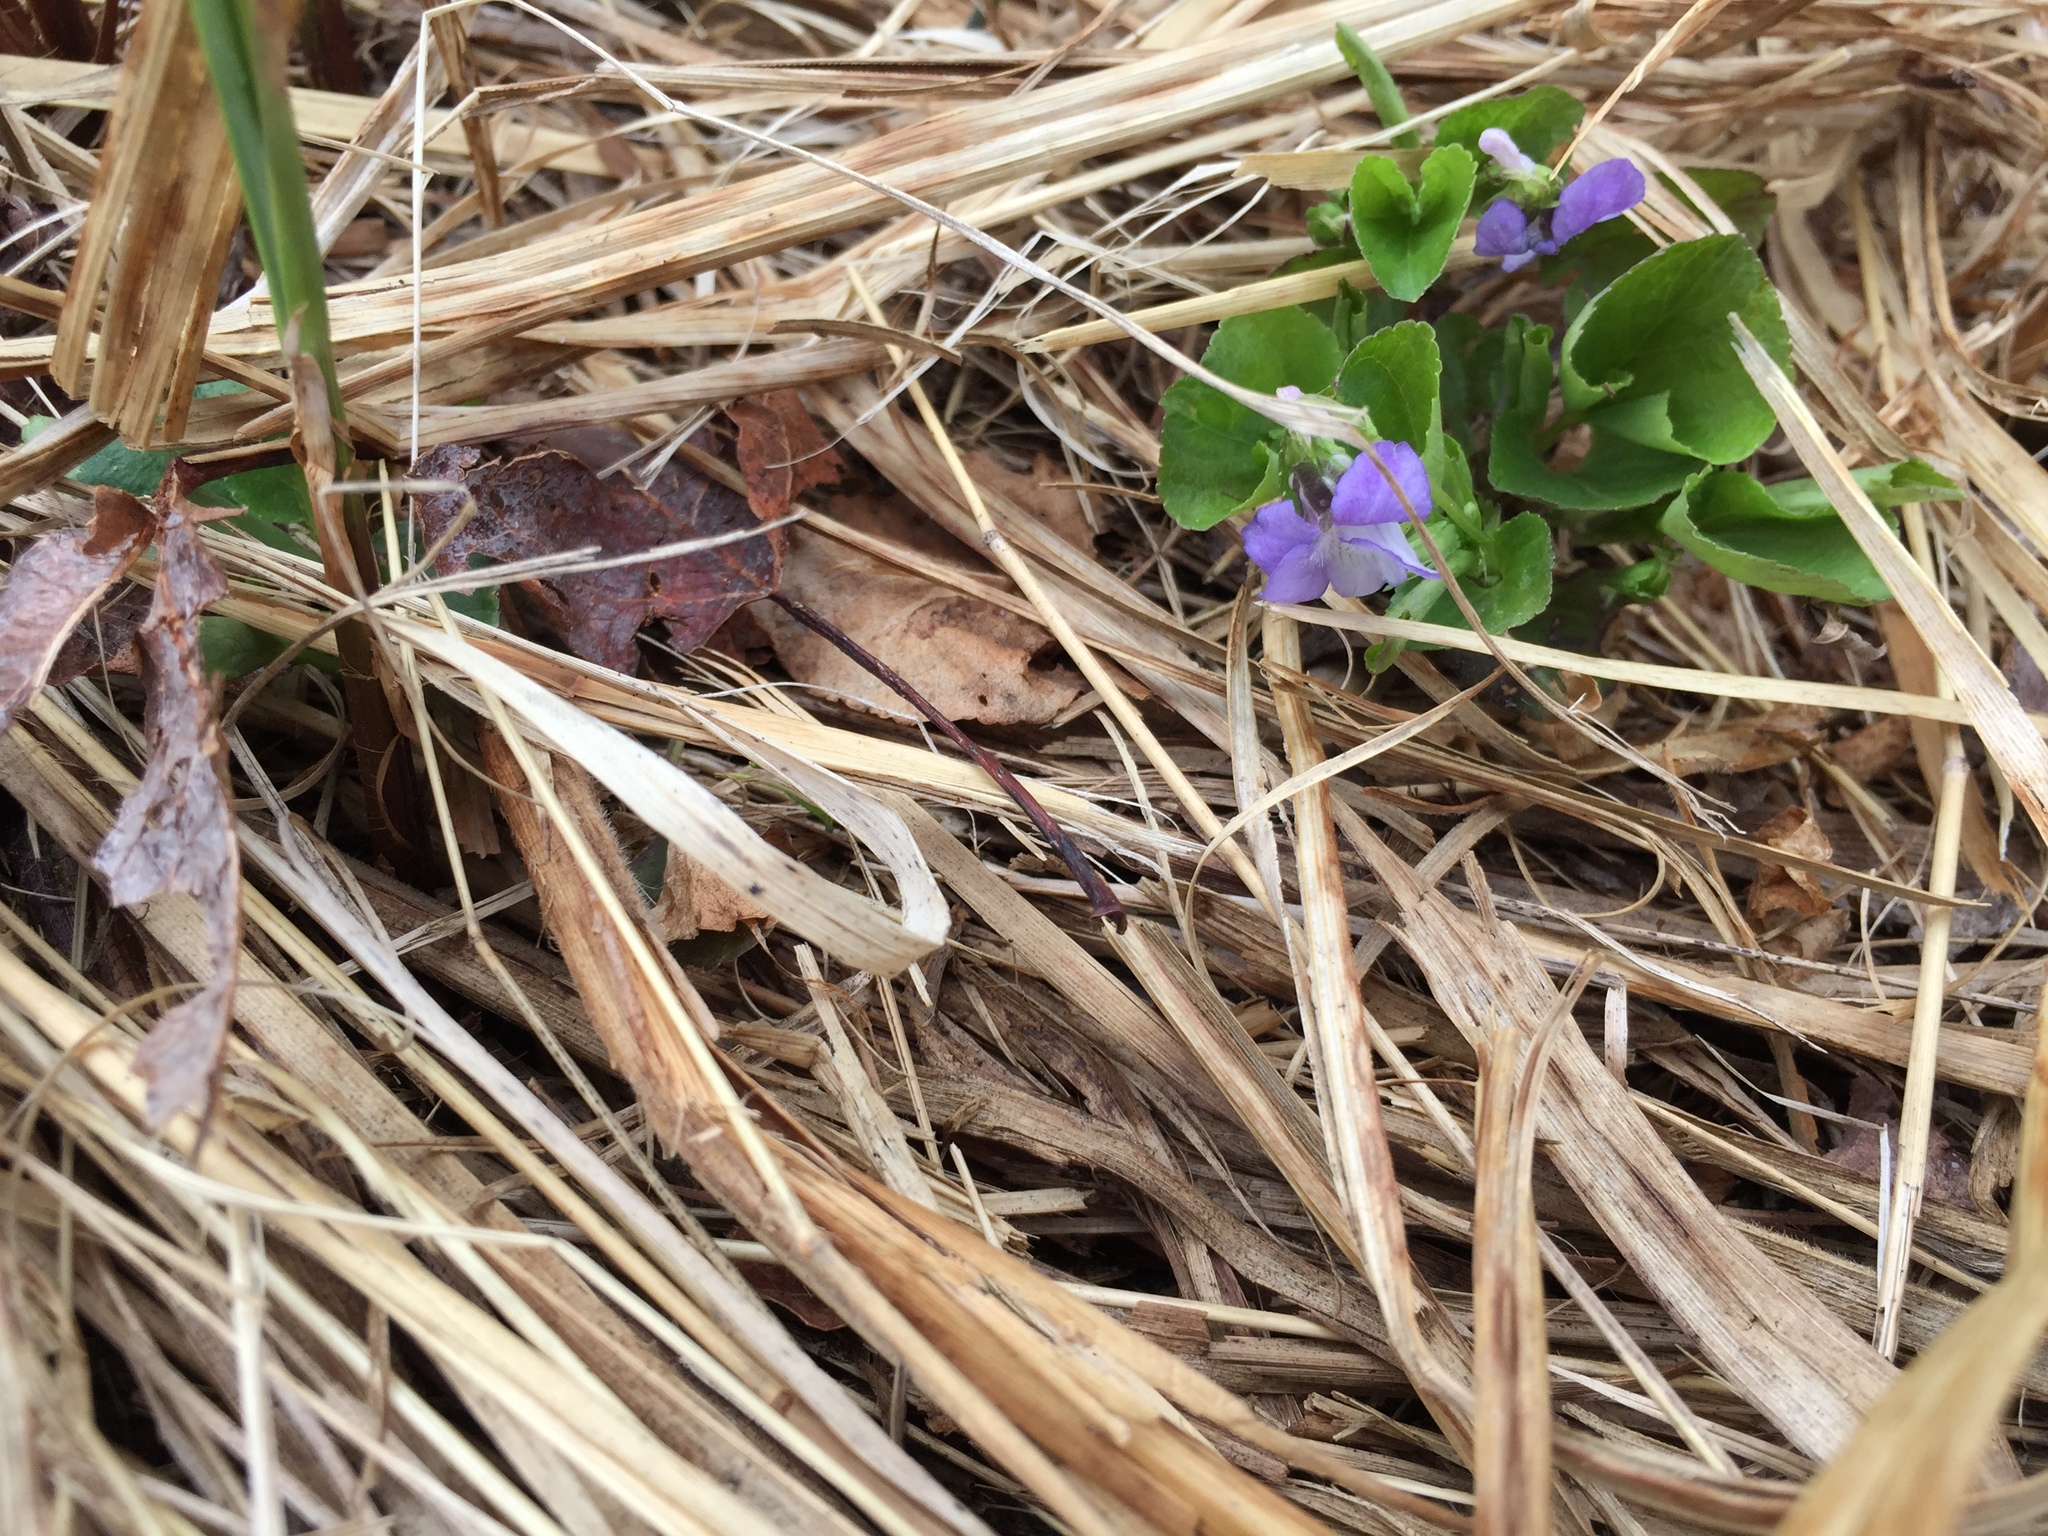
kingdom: Plantae
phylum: Tracheophyta
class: Magnoliopsida
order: Malpighiales
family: Violaceae
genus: Viola
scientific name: Viola nephrophylla
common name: Blue meadow violet
